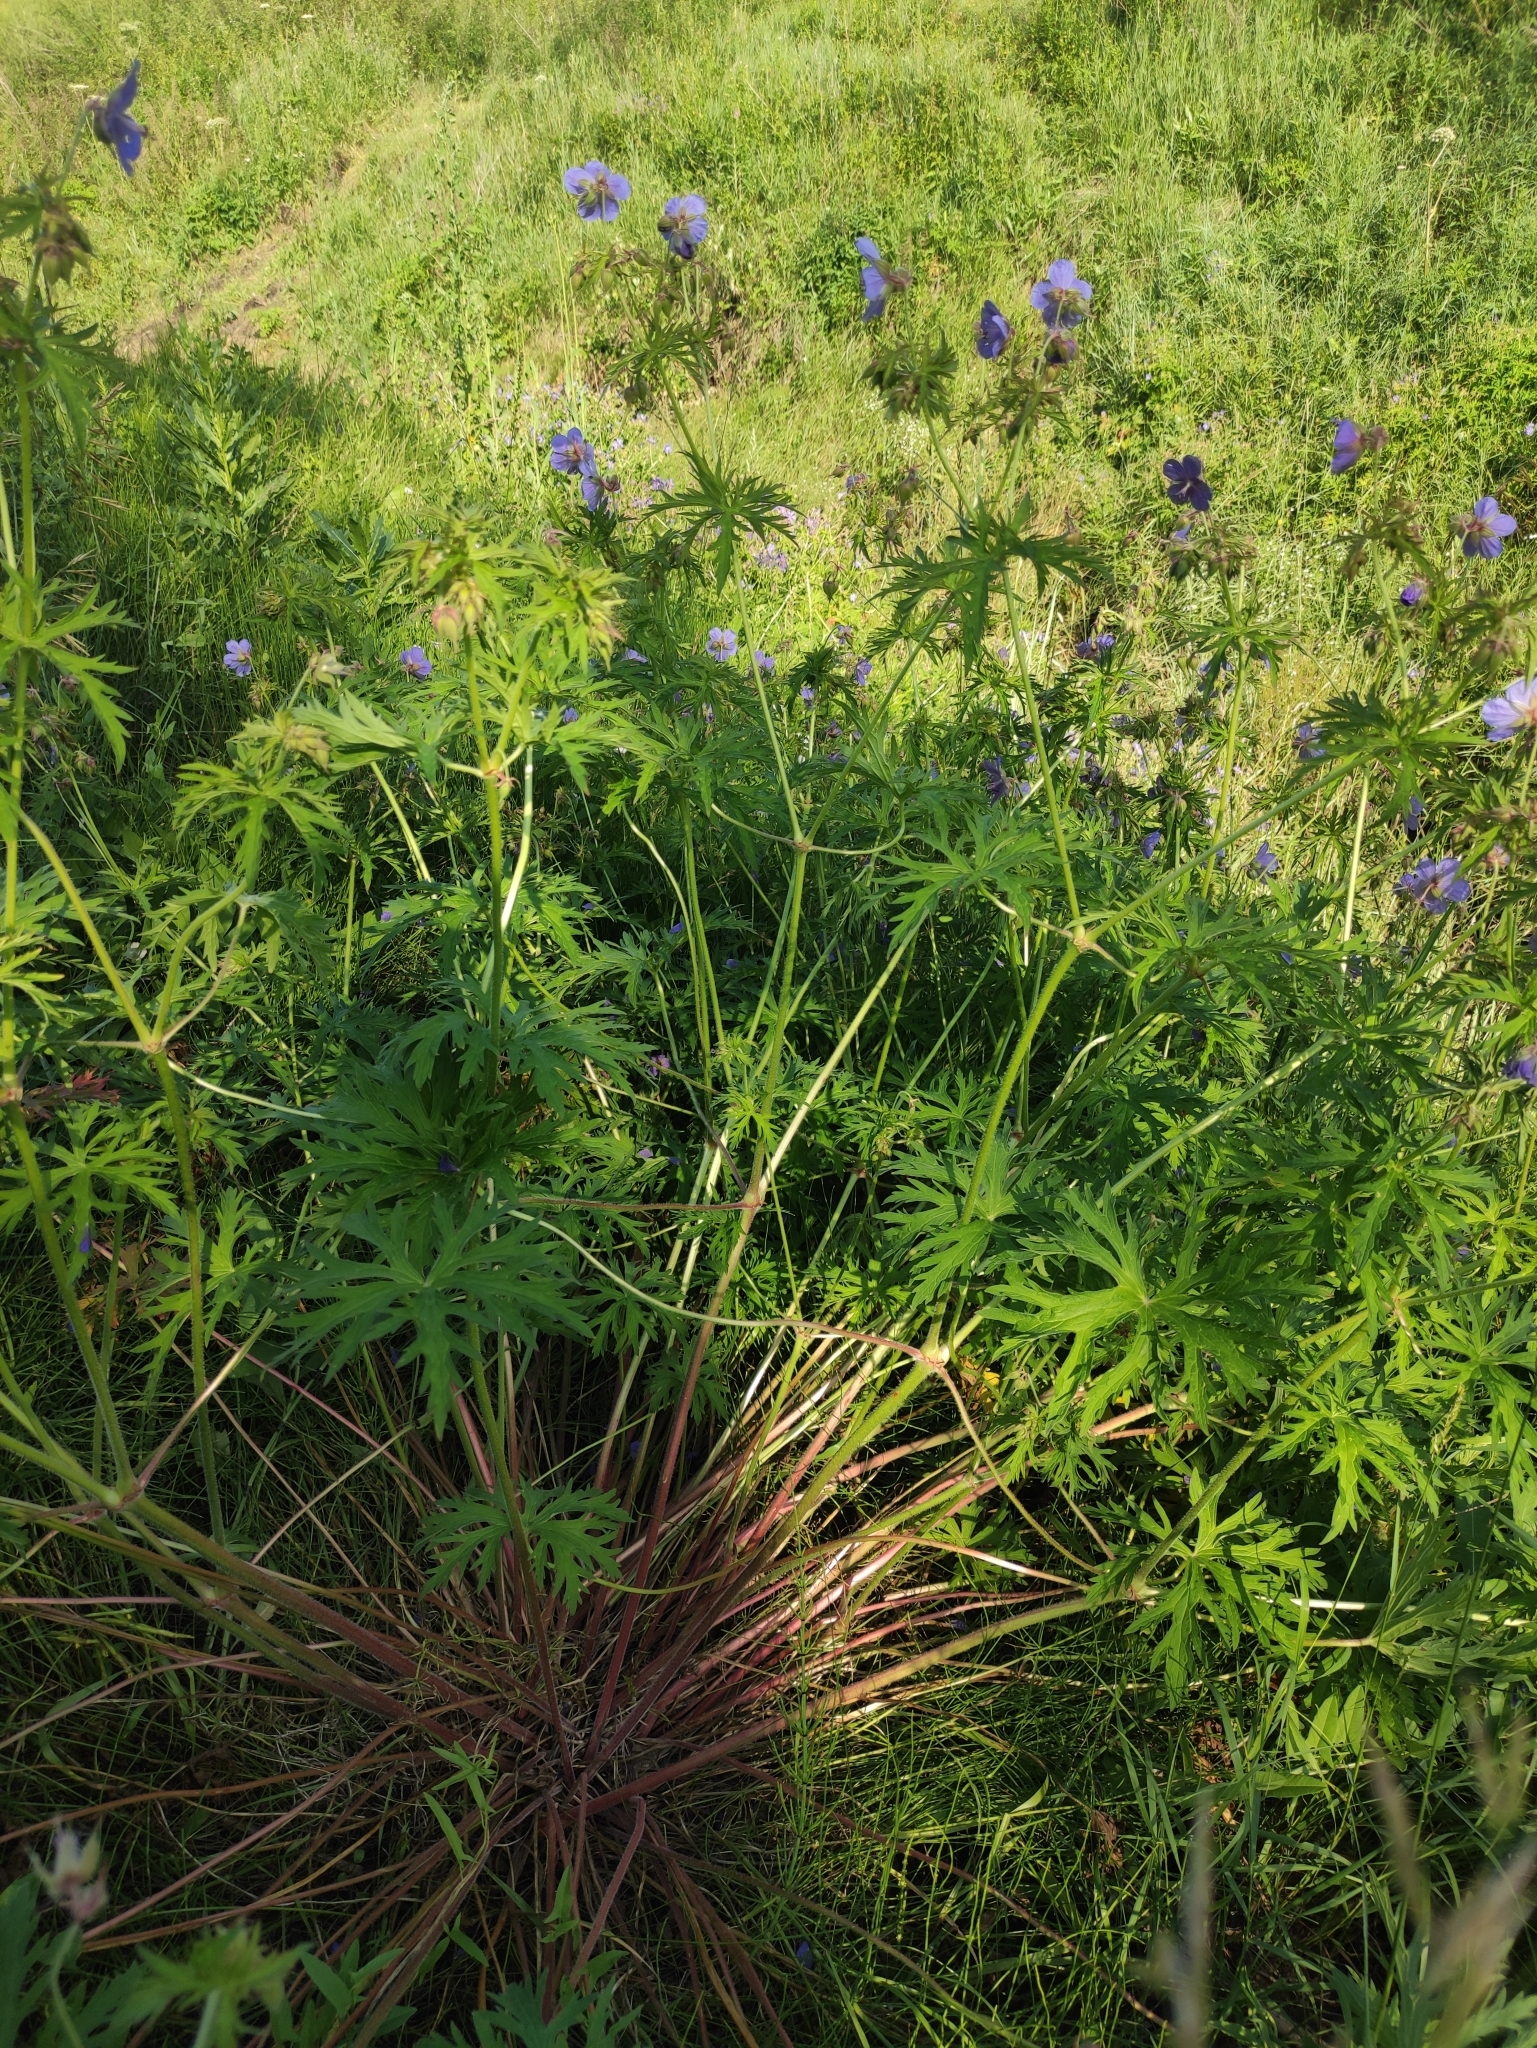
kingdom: Plantae
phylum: Tracheophyta
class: Magnoliopsida
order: Geraniales
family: Geraniaceae
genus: Geranium
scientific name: Geranium pratense
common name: Meadow crane's-bill
